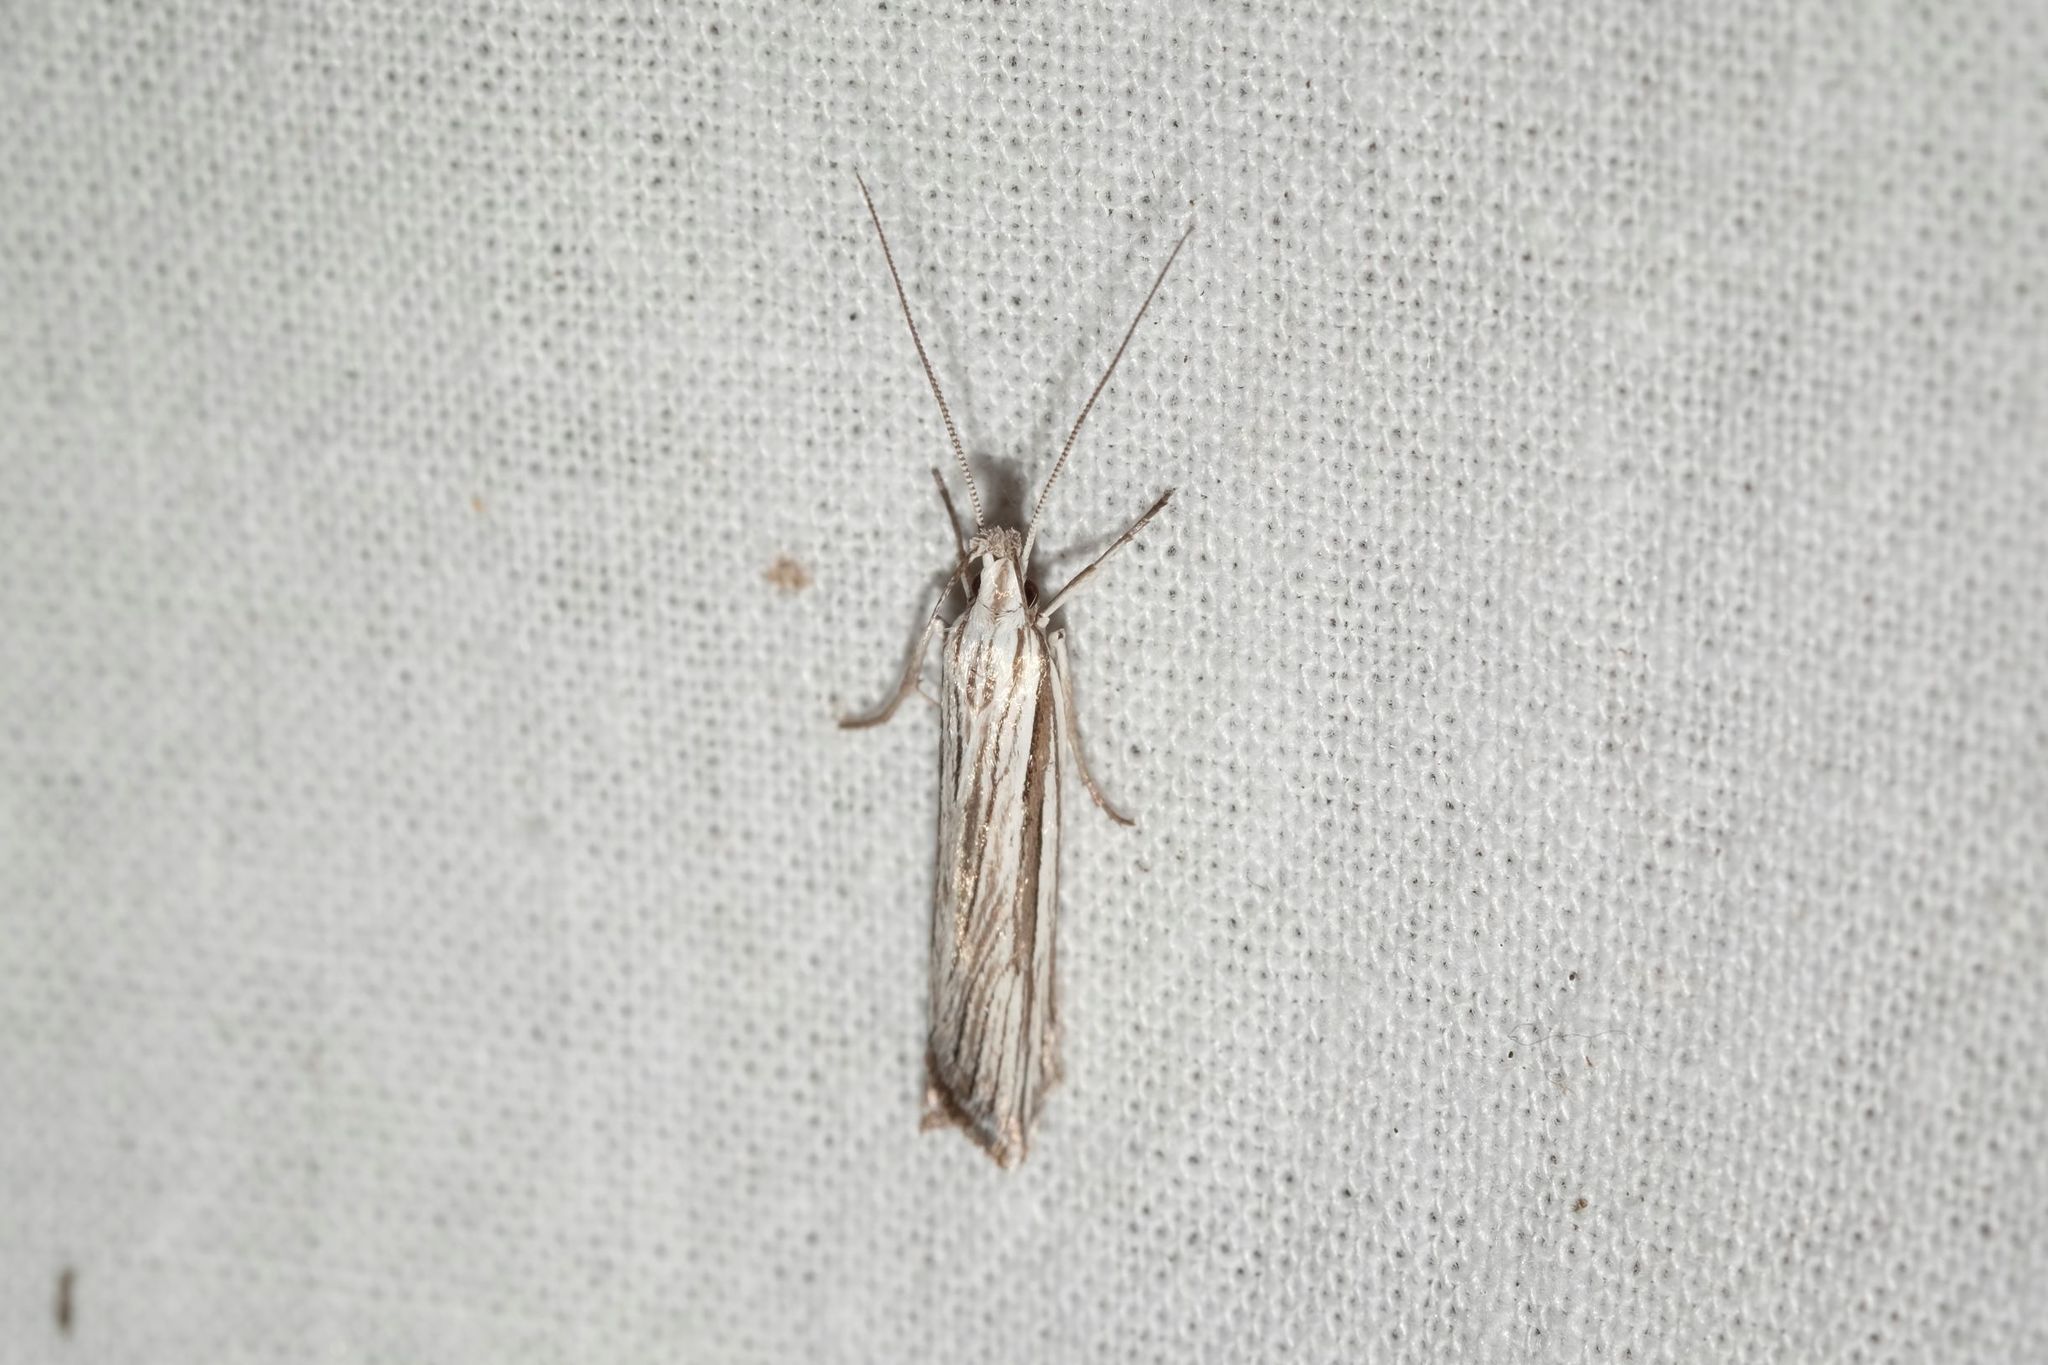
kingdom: Animalia
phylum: Arthropoda
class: Insecta
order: Lepidoptera
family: Depressariidae
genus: Cryptolechia
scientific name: Cryptolechia Leptosaces schistopa
